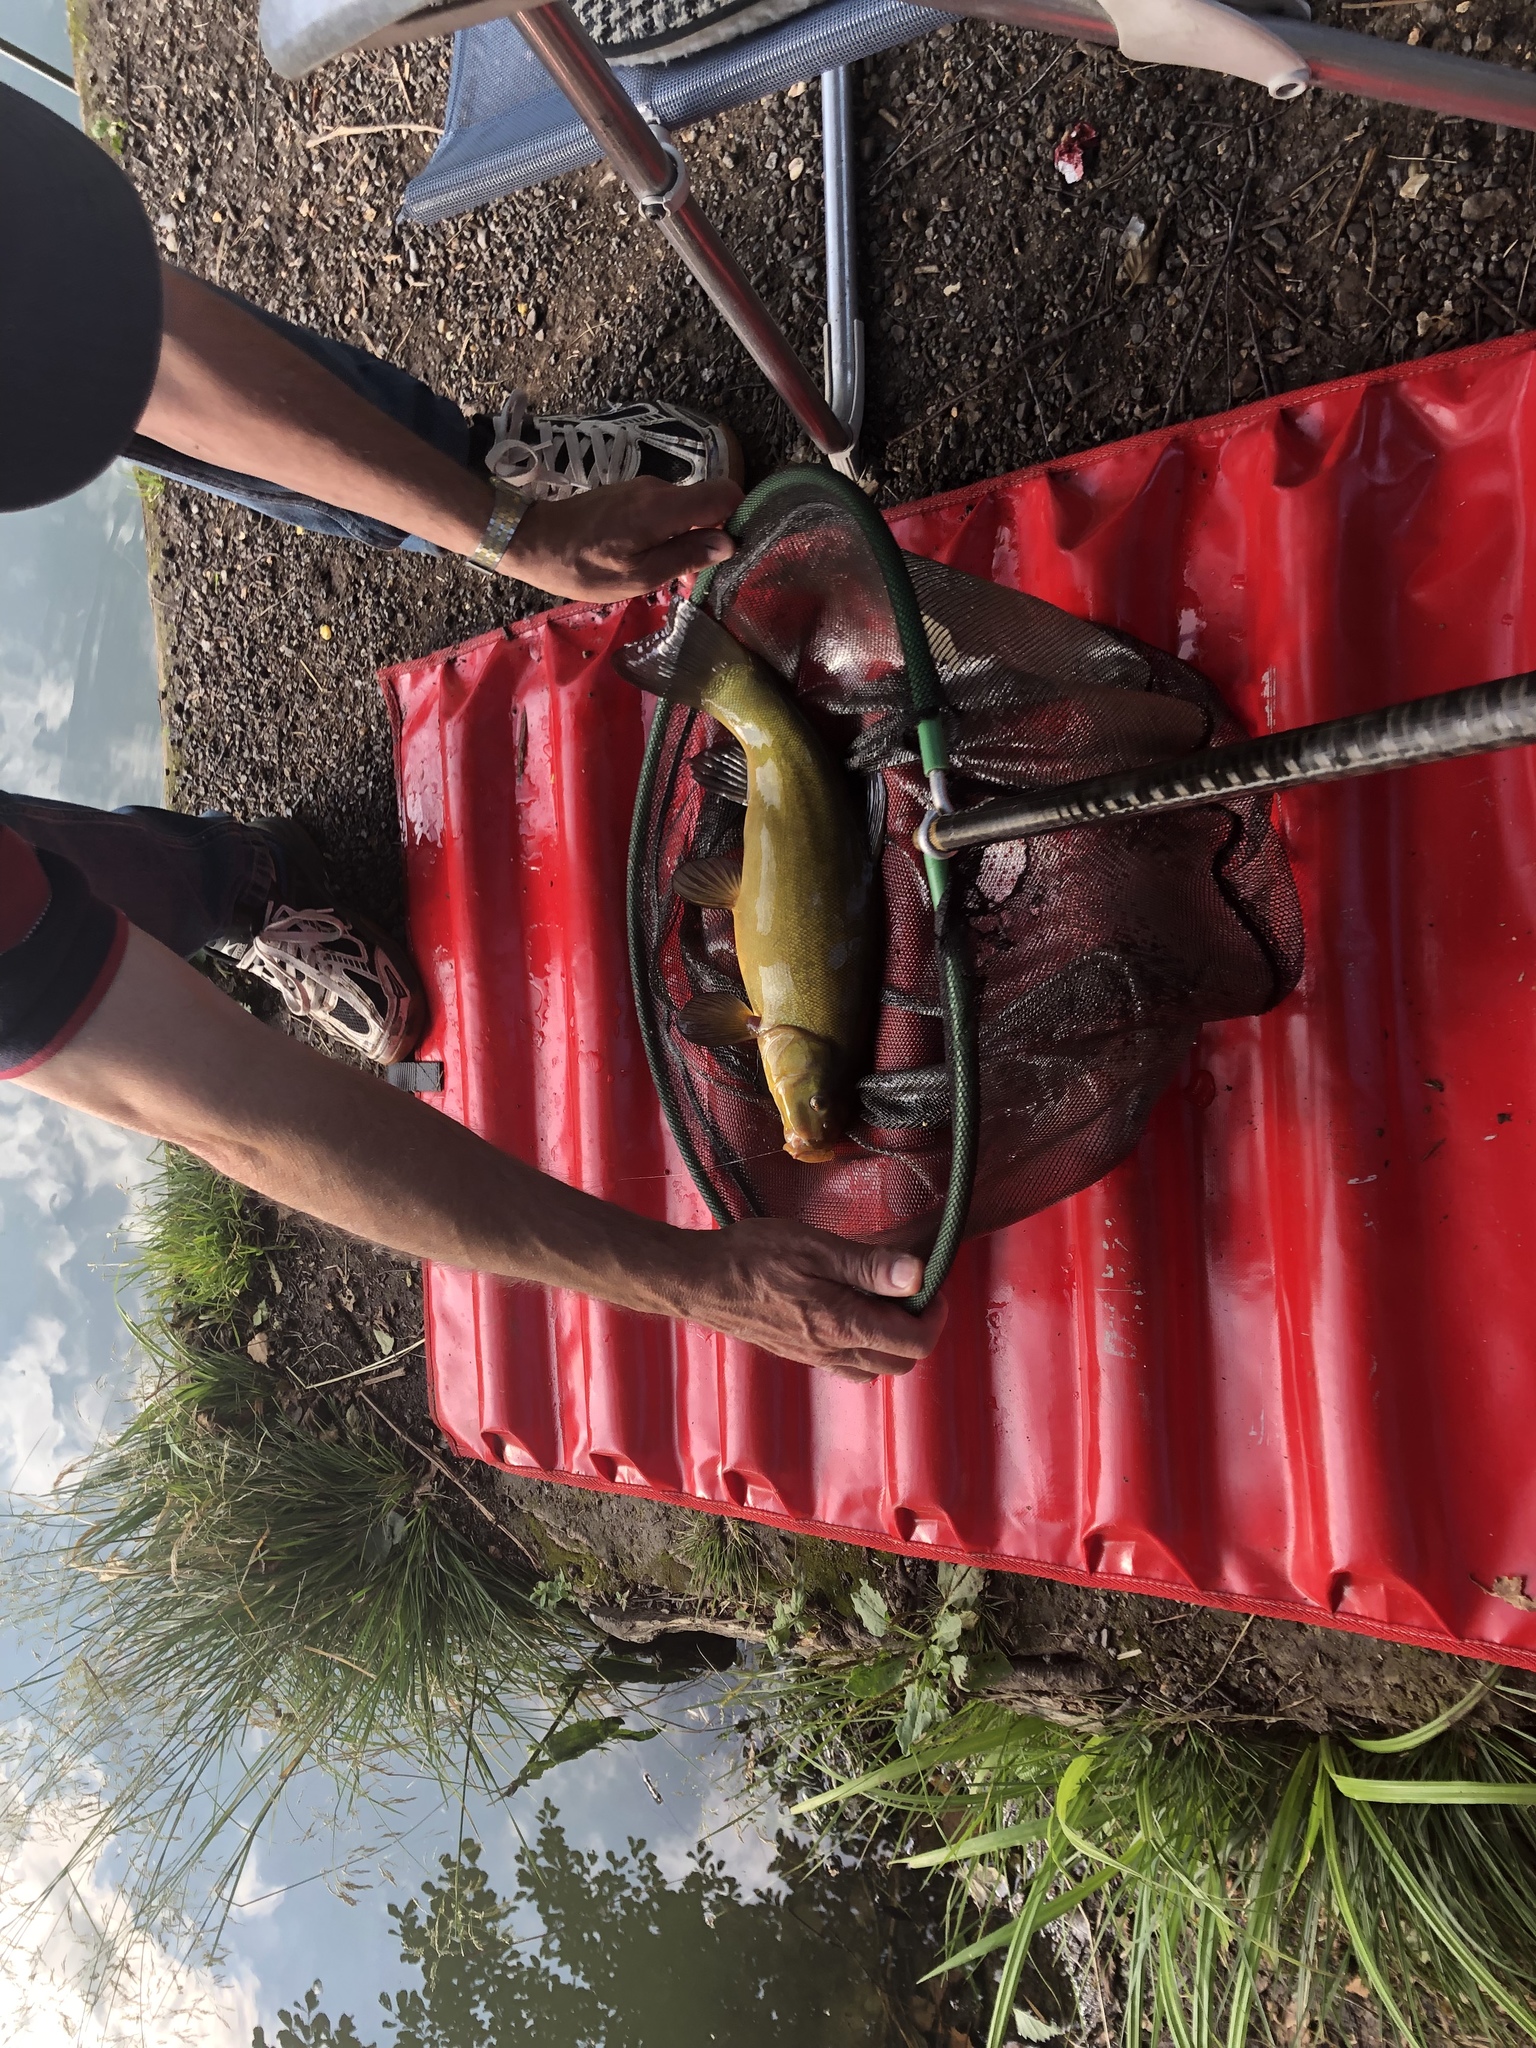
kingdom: Animalia
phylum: Chordata
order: Cypriniformes
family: Cyprinidae
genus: Tinca
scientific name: Tinca tinca
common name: Tench
